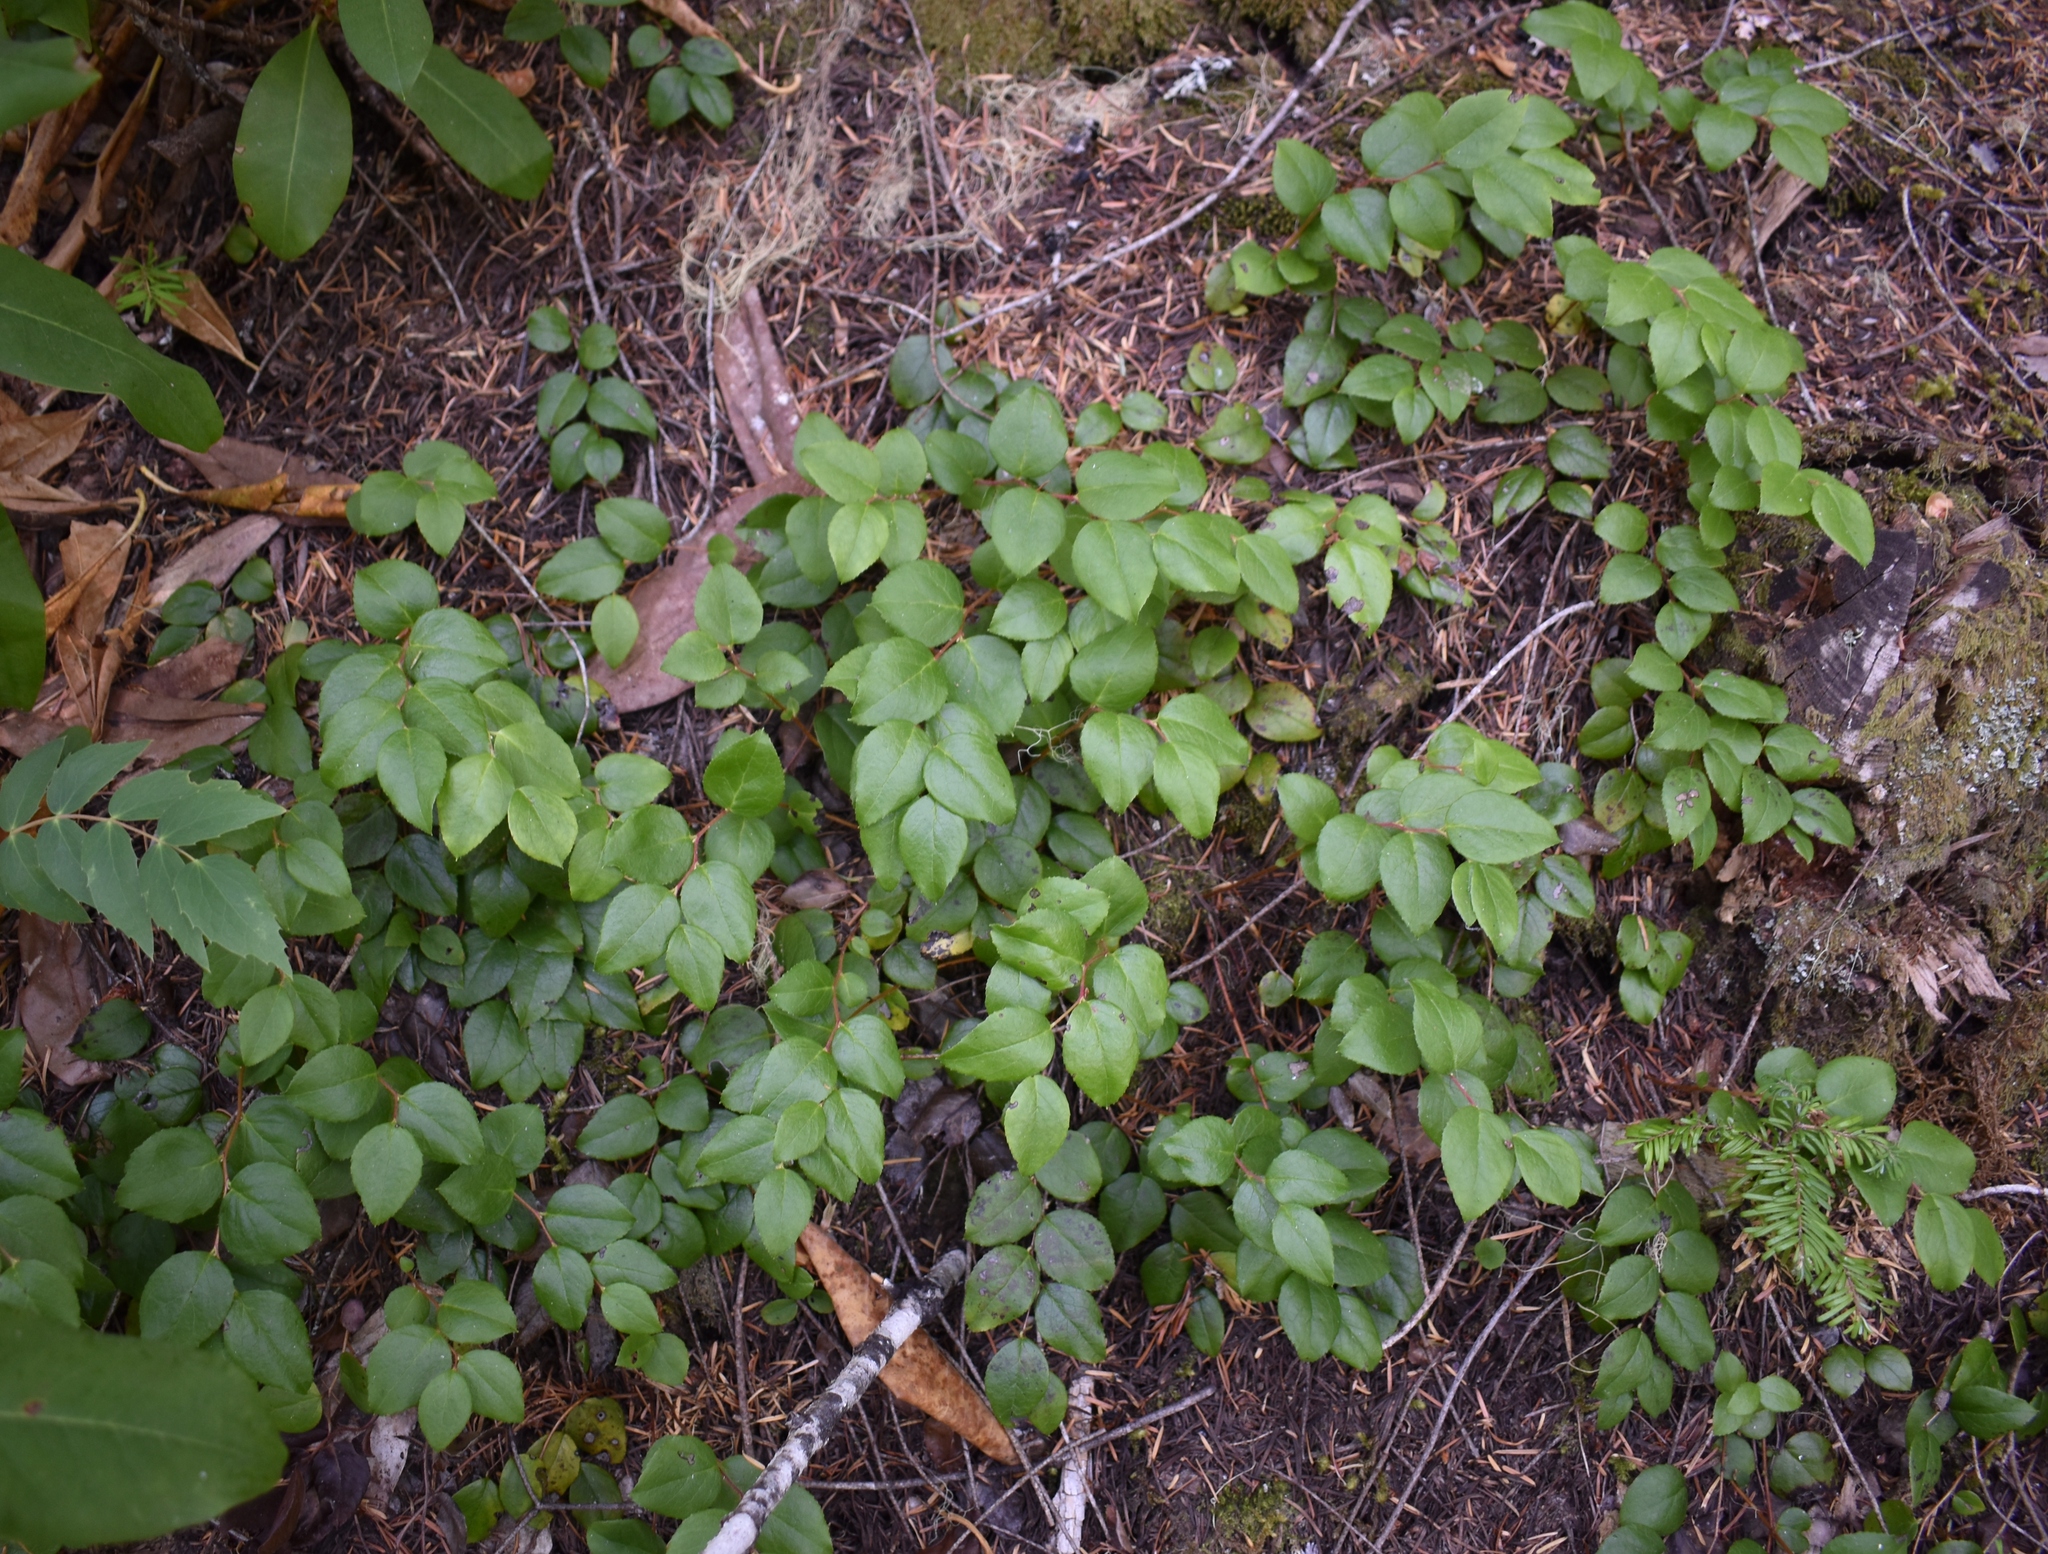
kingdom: Plantae
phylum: Tracheophyta
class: Magnoliopsida
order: Ericales
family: Ericaceae
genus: Gaultheria
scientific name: Gaultheria ovatifolia
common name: Oregon wintergreen
